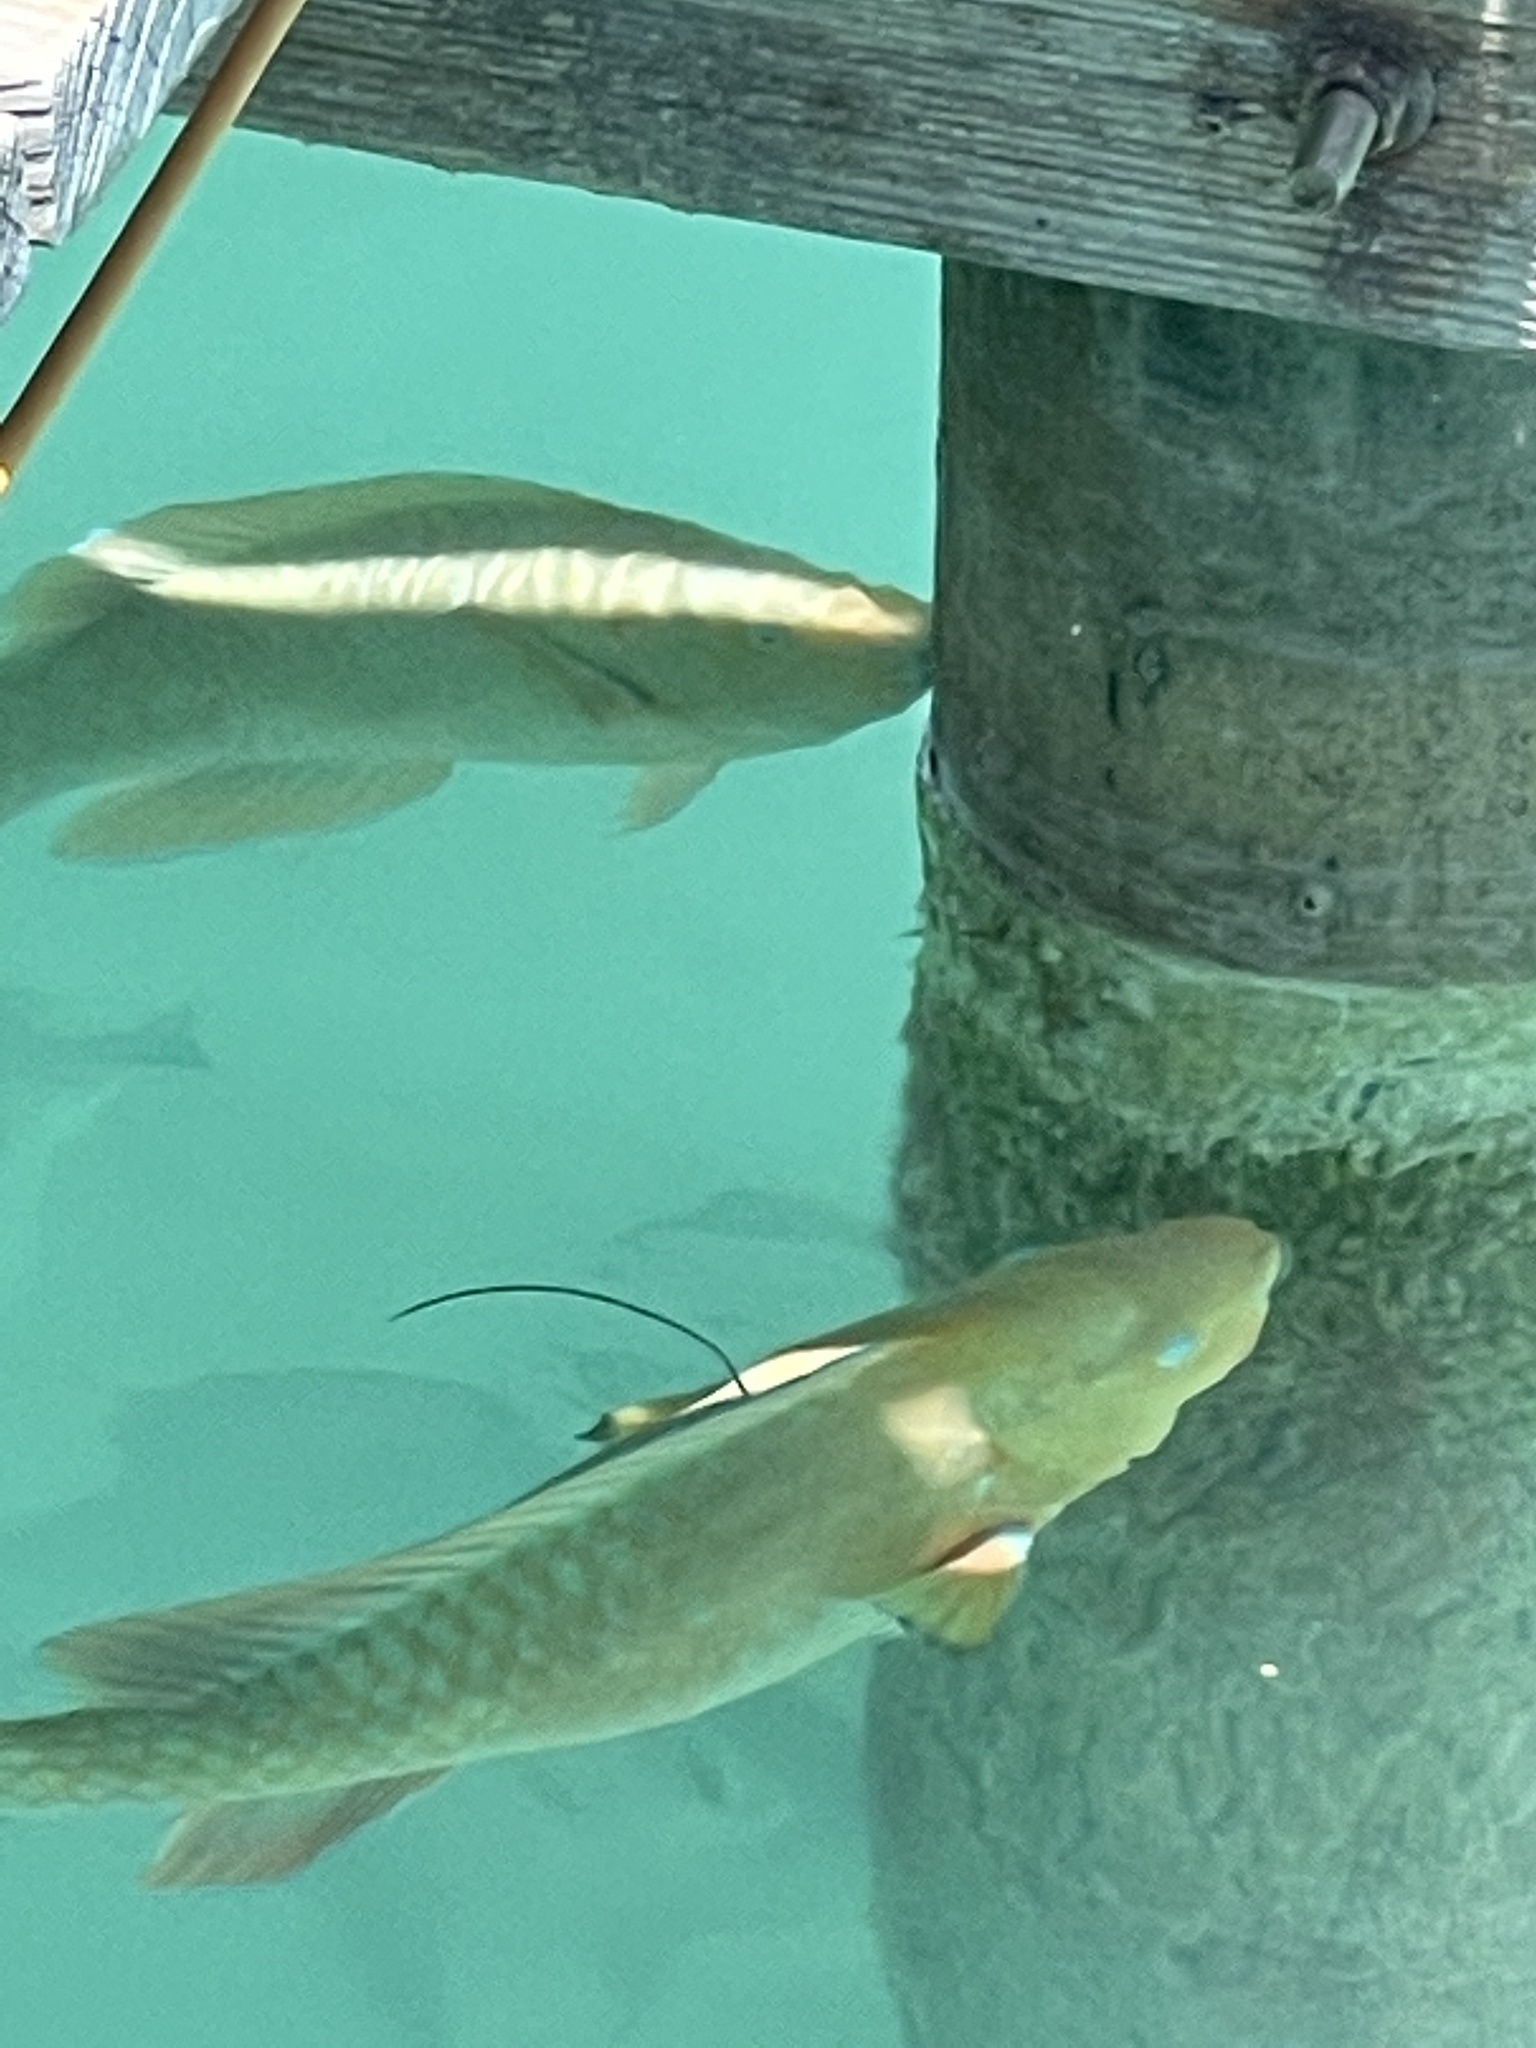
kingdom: Animalia
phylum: Chordata
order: Perciformes
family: Scaridae
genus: Scarus
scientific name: Scarus guacamaia
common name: Rainbow parrotfish
